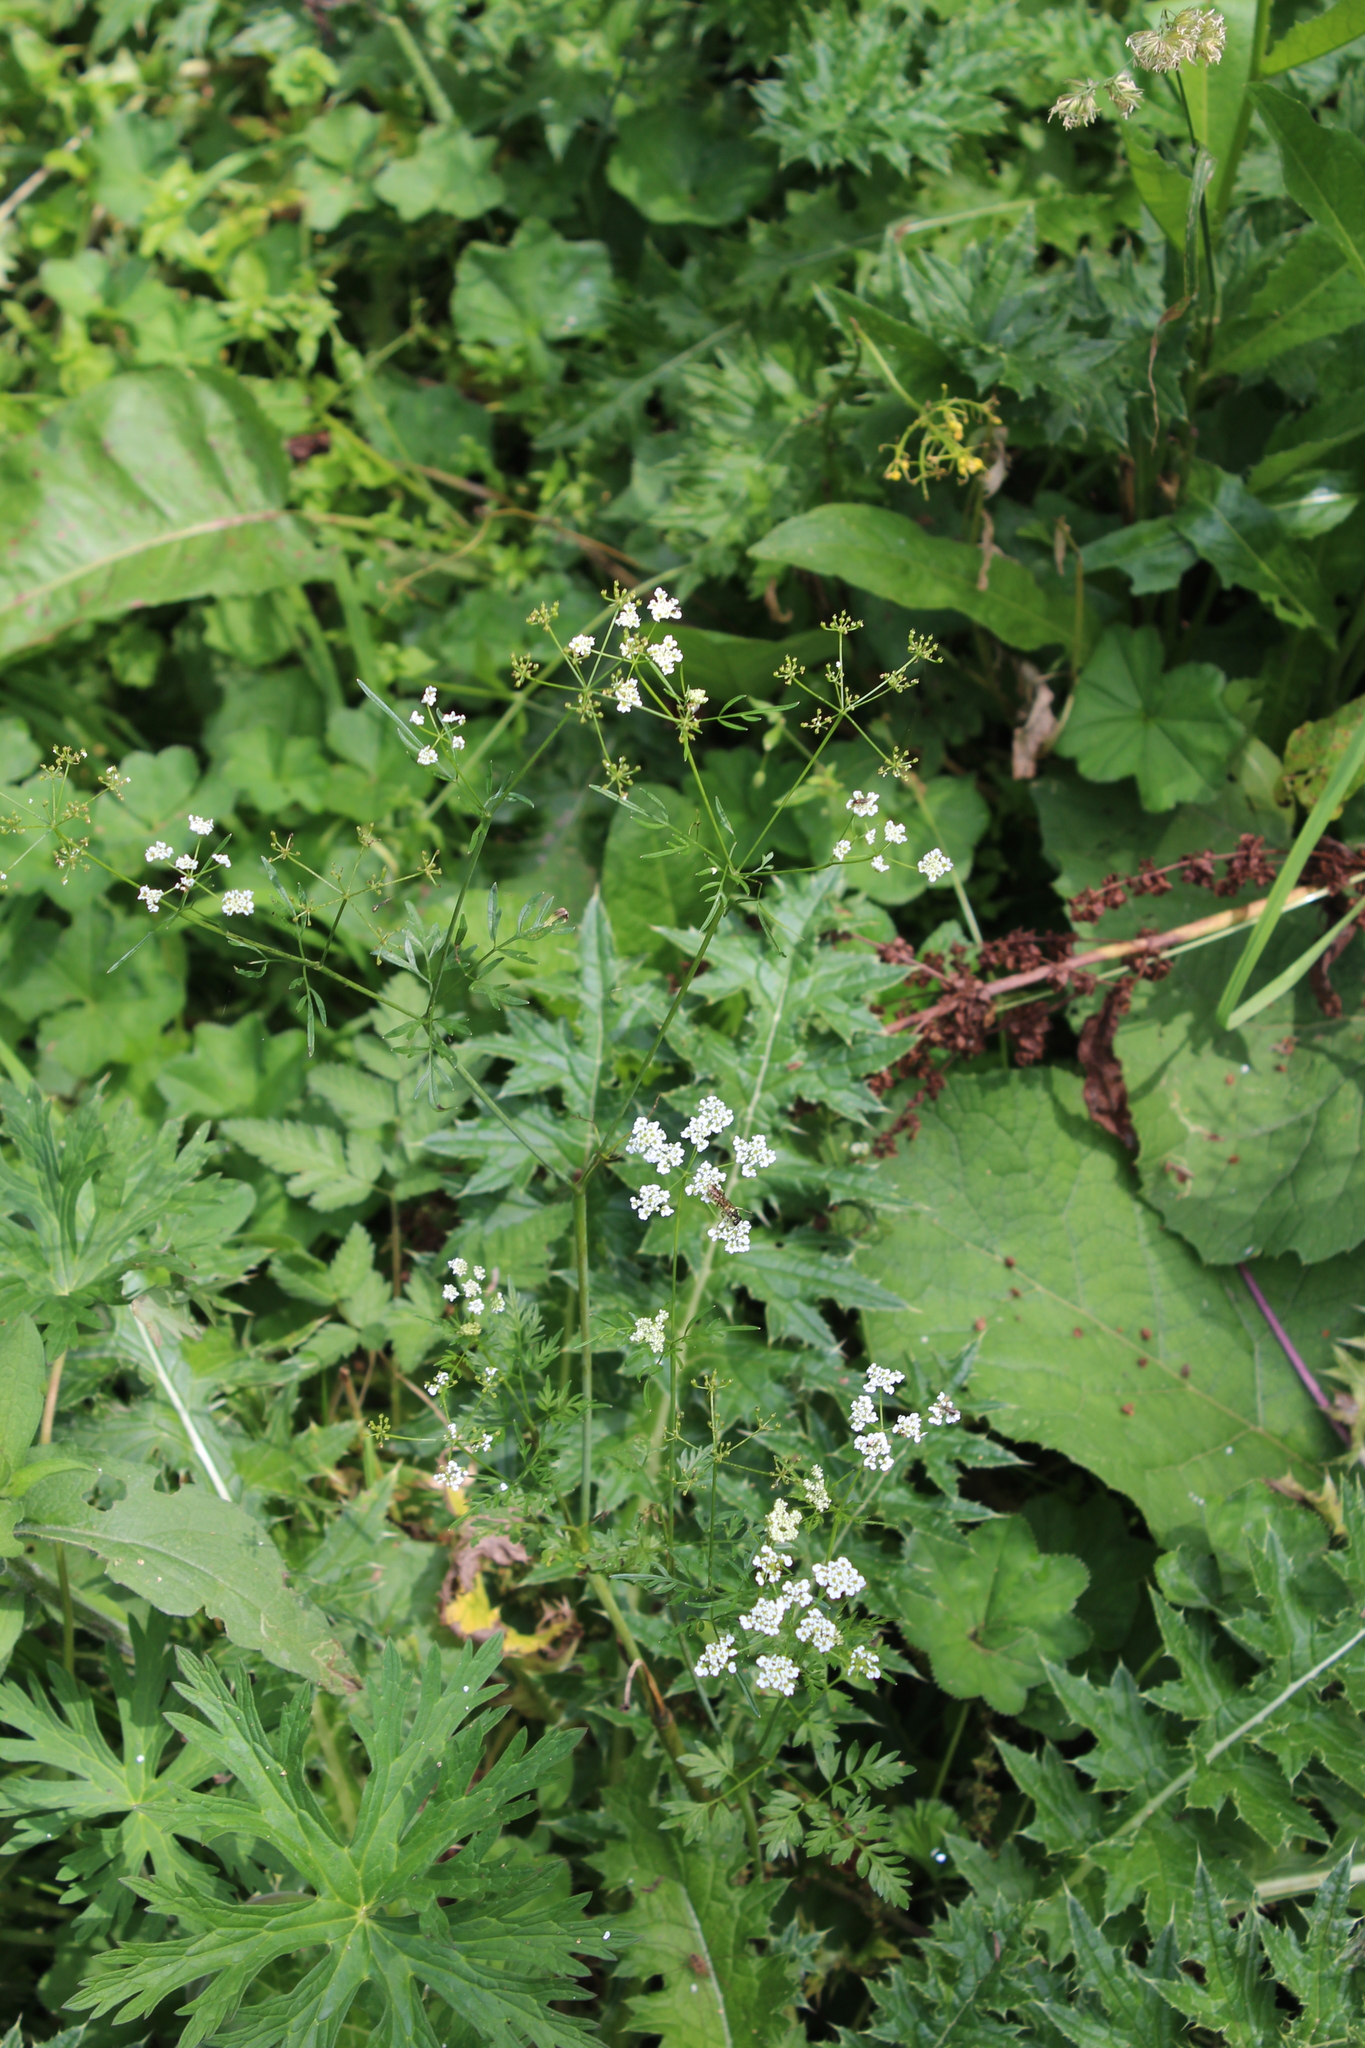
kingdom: Plantae
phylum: Tracheophyta
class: Magnoliopsida
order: Apiales
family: Apiaceae
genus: Chaerophyllum
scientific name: Chaerophyllum bulbosum
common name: Bulbous chervil
